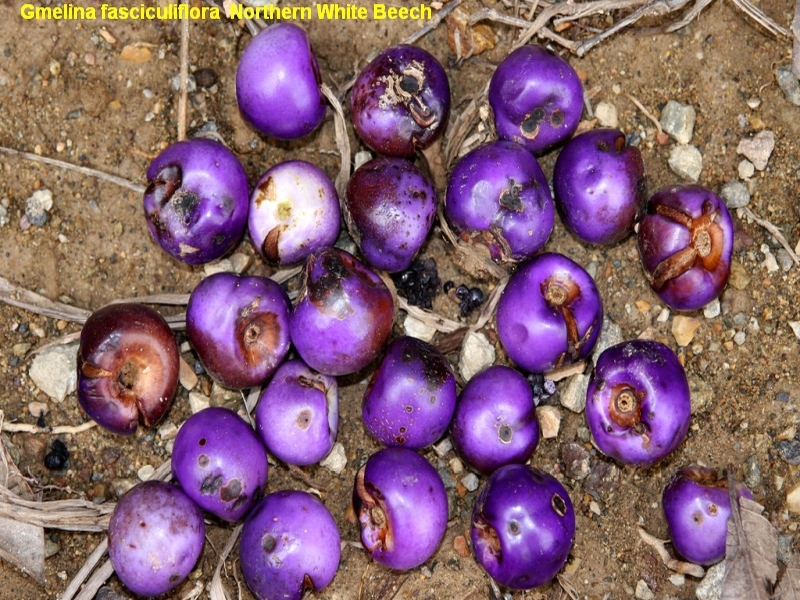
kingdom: Plantae
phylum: Tracheophyta
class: Magnoliopsida
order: Lamiales
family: Lamiaceae
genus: Gmelina
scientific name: Gmelina fasciculiflora
